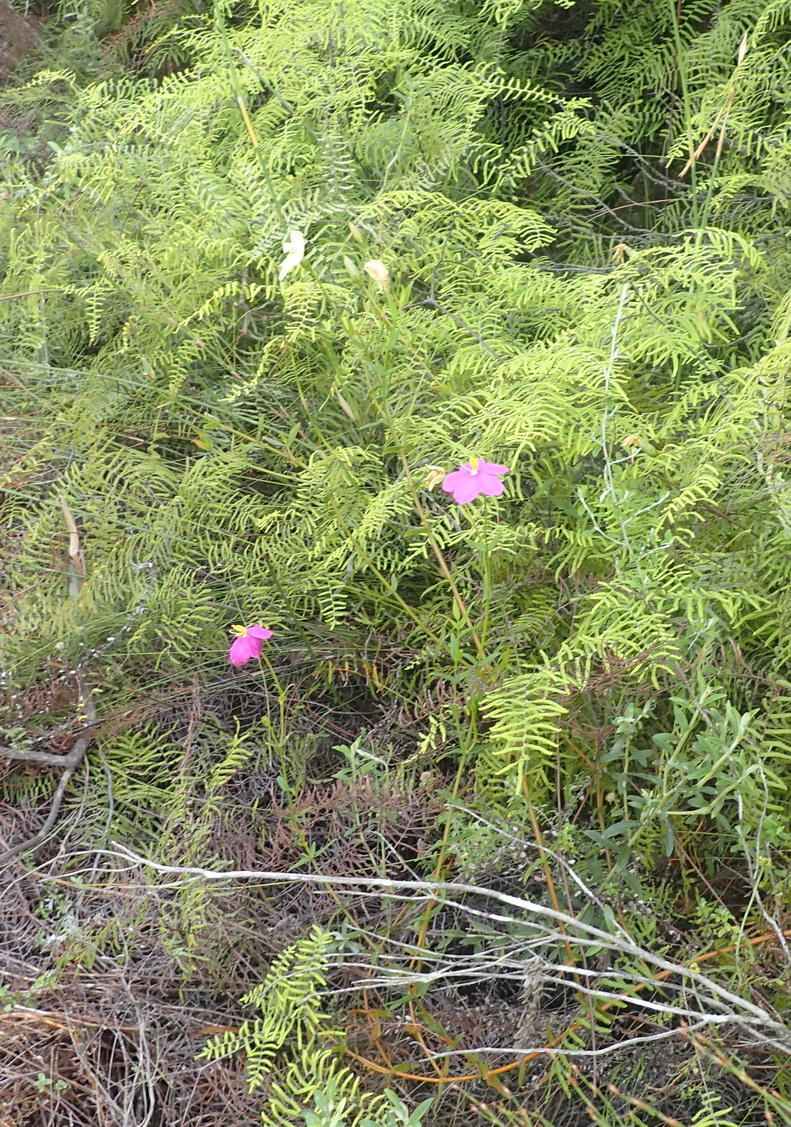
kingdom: Plantae
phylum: Tracheophyta
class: Magnoliopsida
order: Gentianales
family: Gentianaceae
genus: Chironia
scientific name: Chironia melampyrifolia
